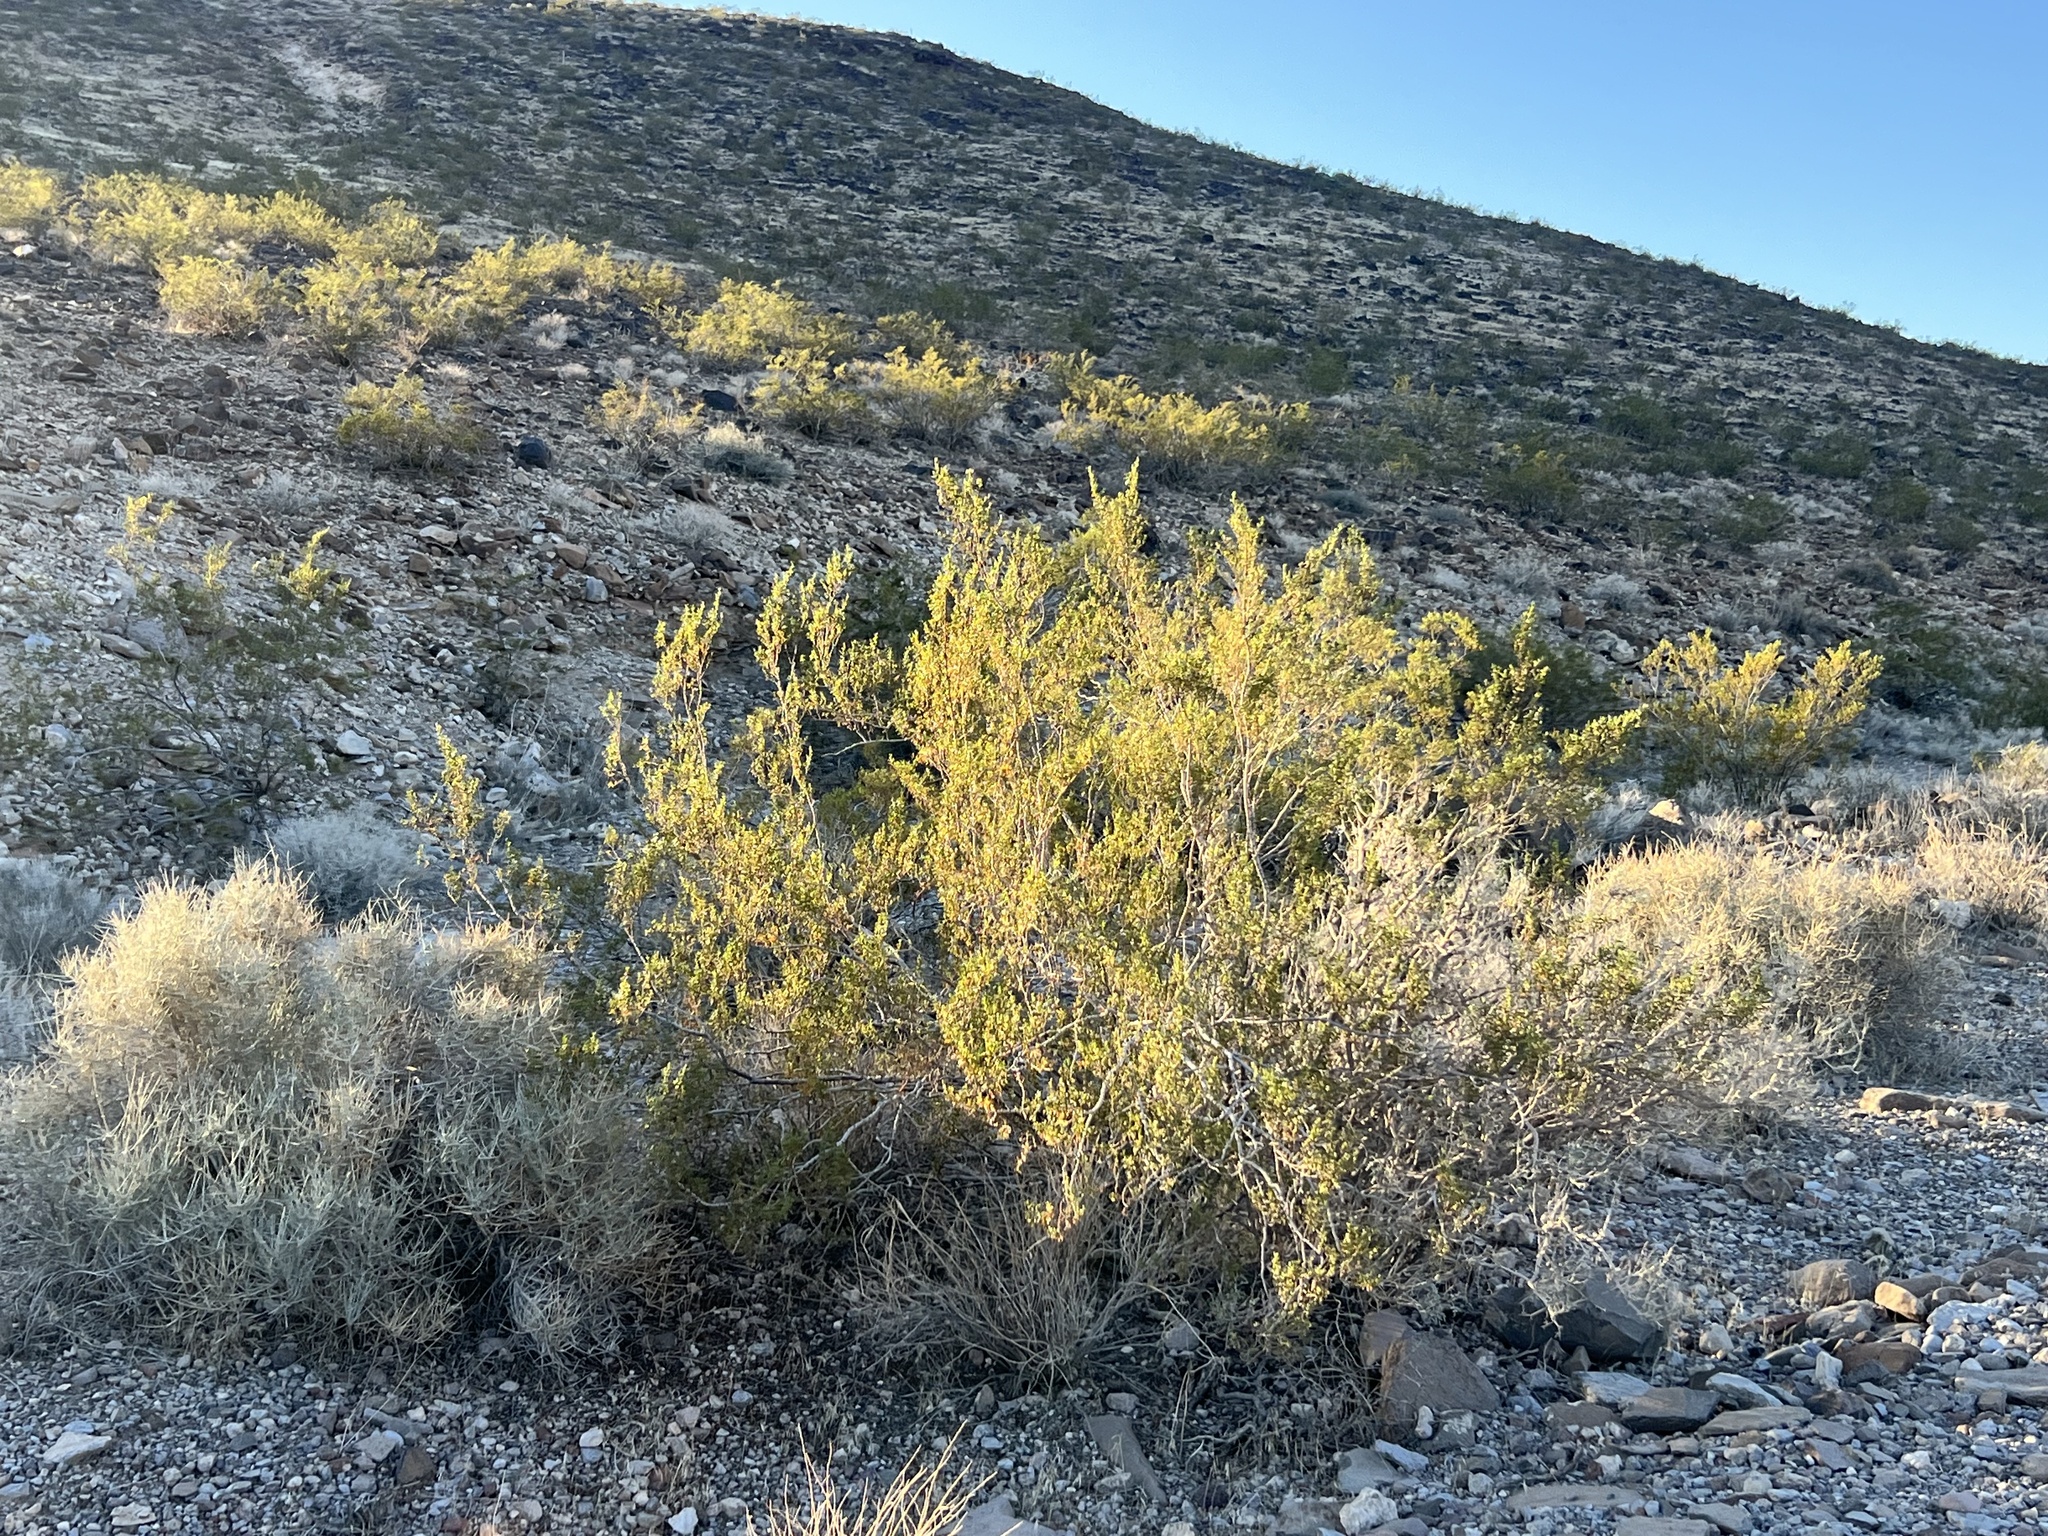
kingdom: Plantae
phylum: Tracheophyta
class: Magnoliopsida
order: Zygophyllales
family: Zygophyllaceae
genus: Larrea
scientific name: Larrea tridentata
